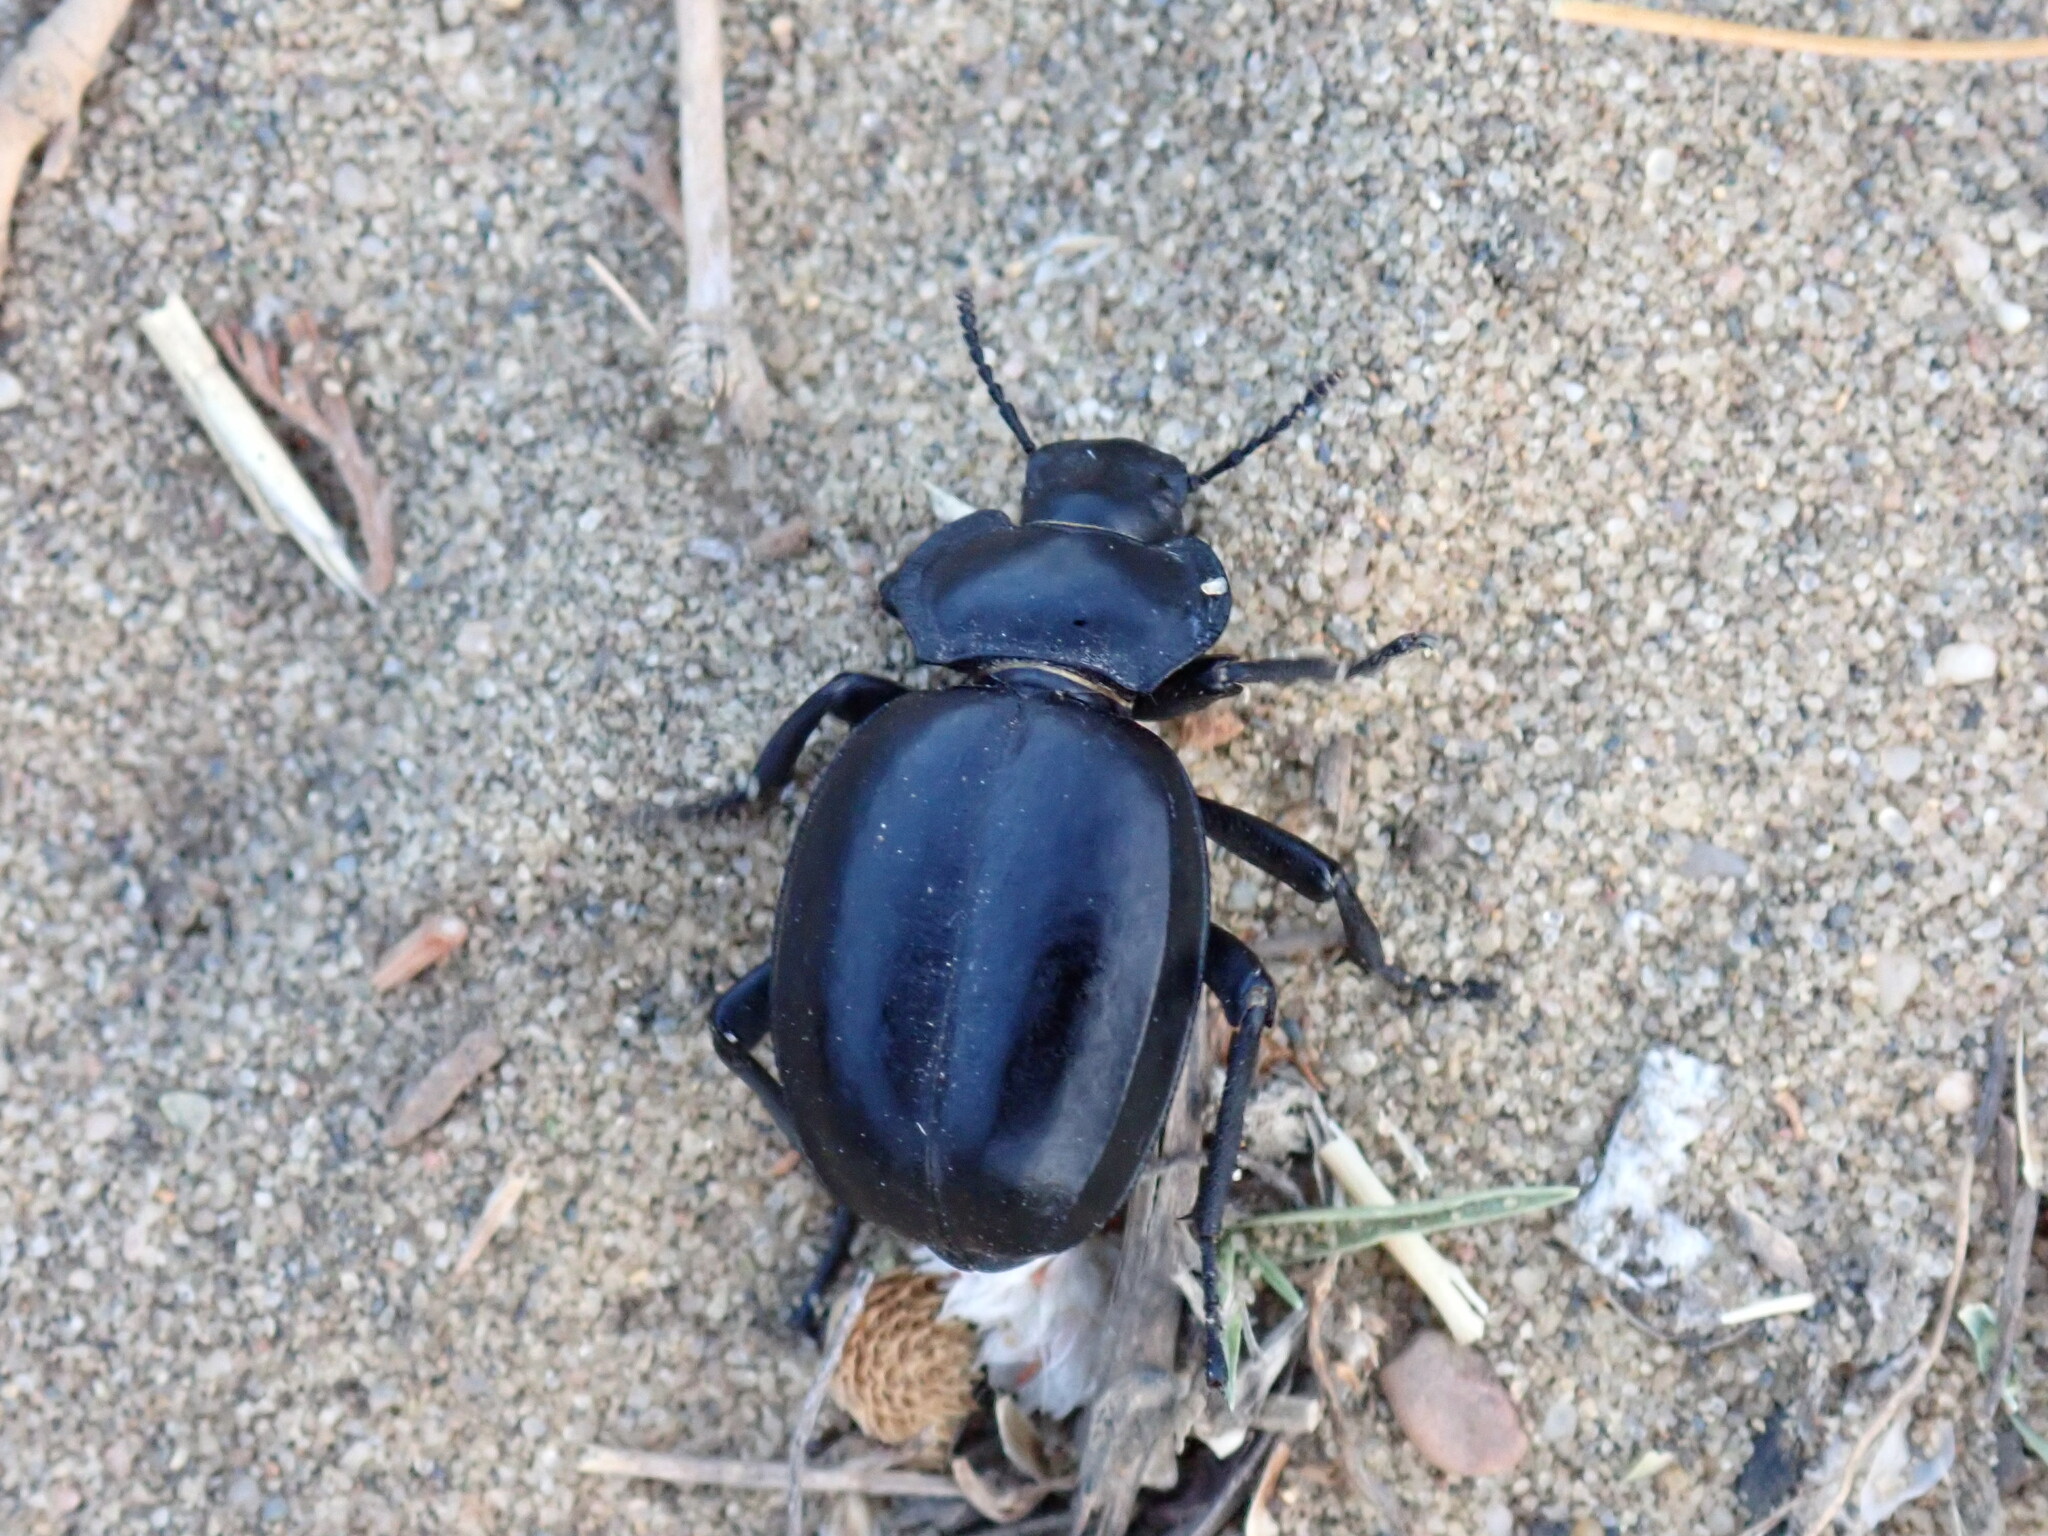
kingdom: Animalia
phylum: Arthropoda
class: Insecta
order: Coleoptera
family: Tenebrionidae
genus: Morica
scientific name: Morica planata
